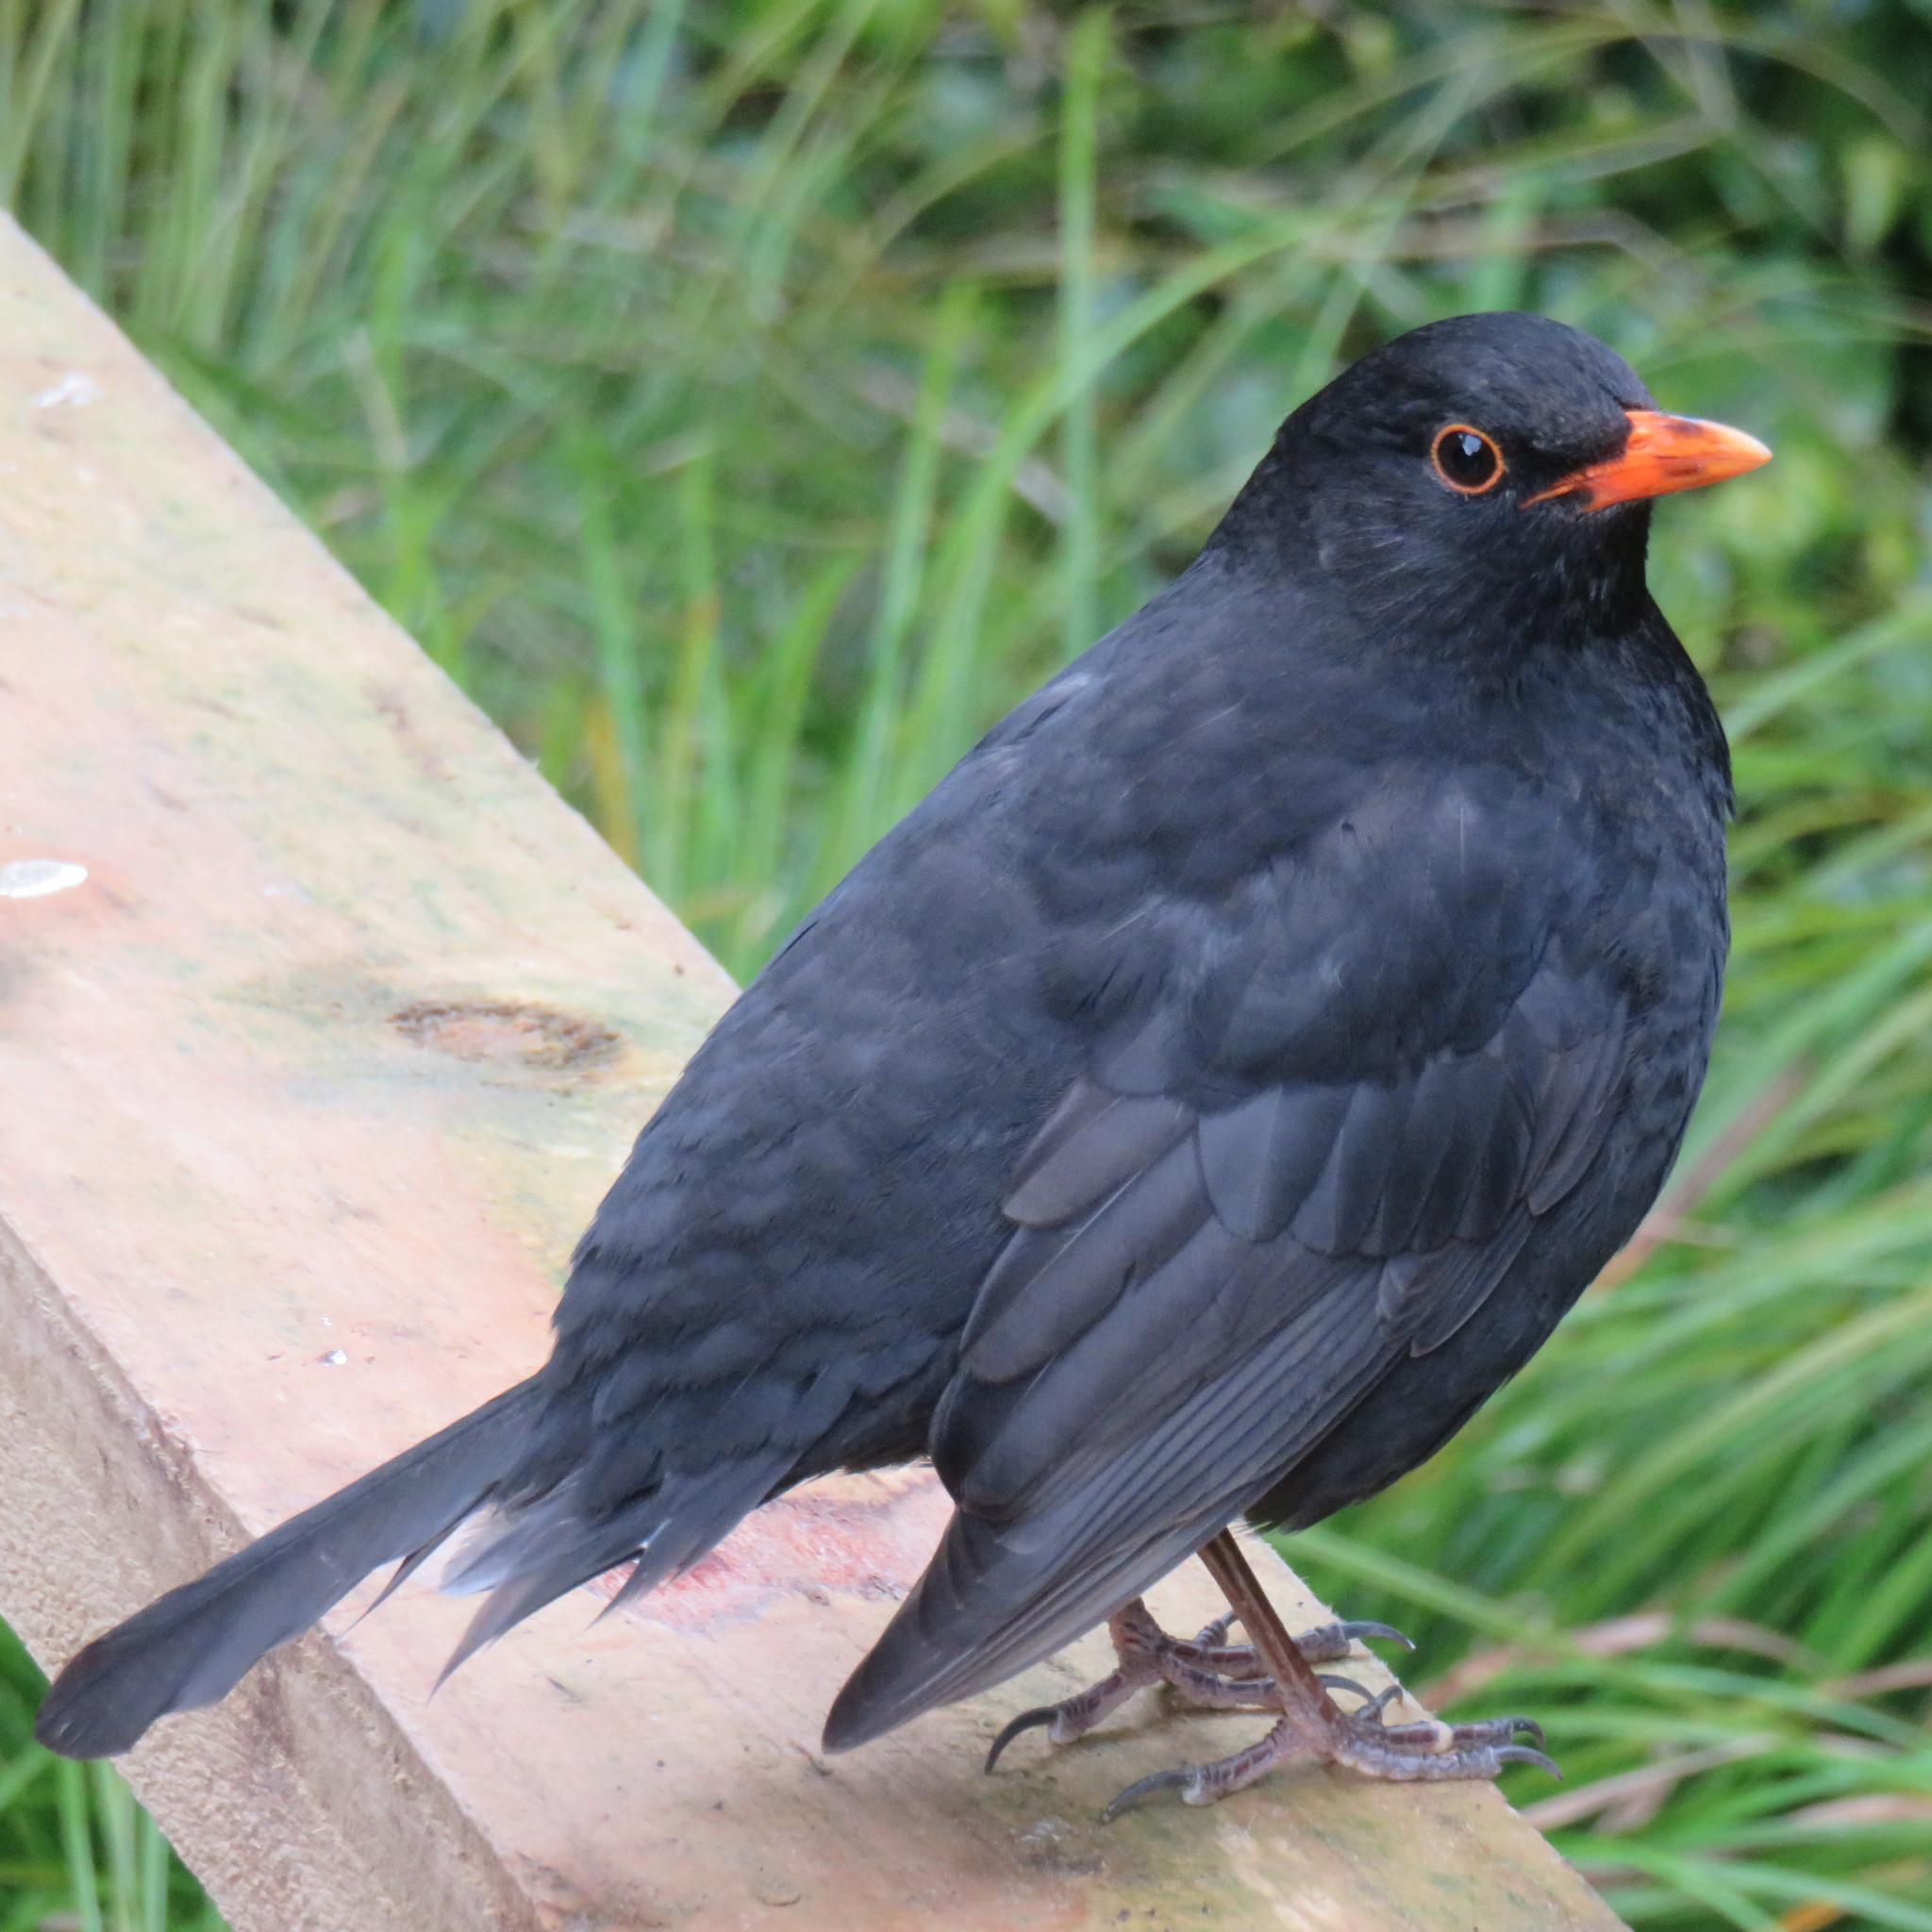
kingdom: Animalia
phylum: Chordata
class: Aves
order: Passeriformes
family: Turdidae
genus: Turdus
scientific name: Turdus merula
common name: Common blackbird
